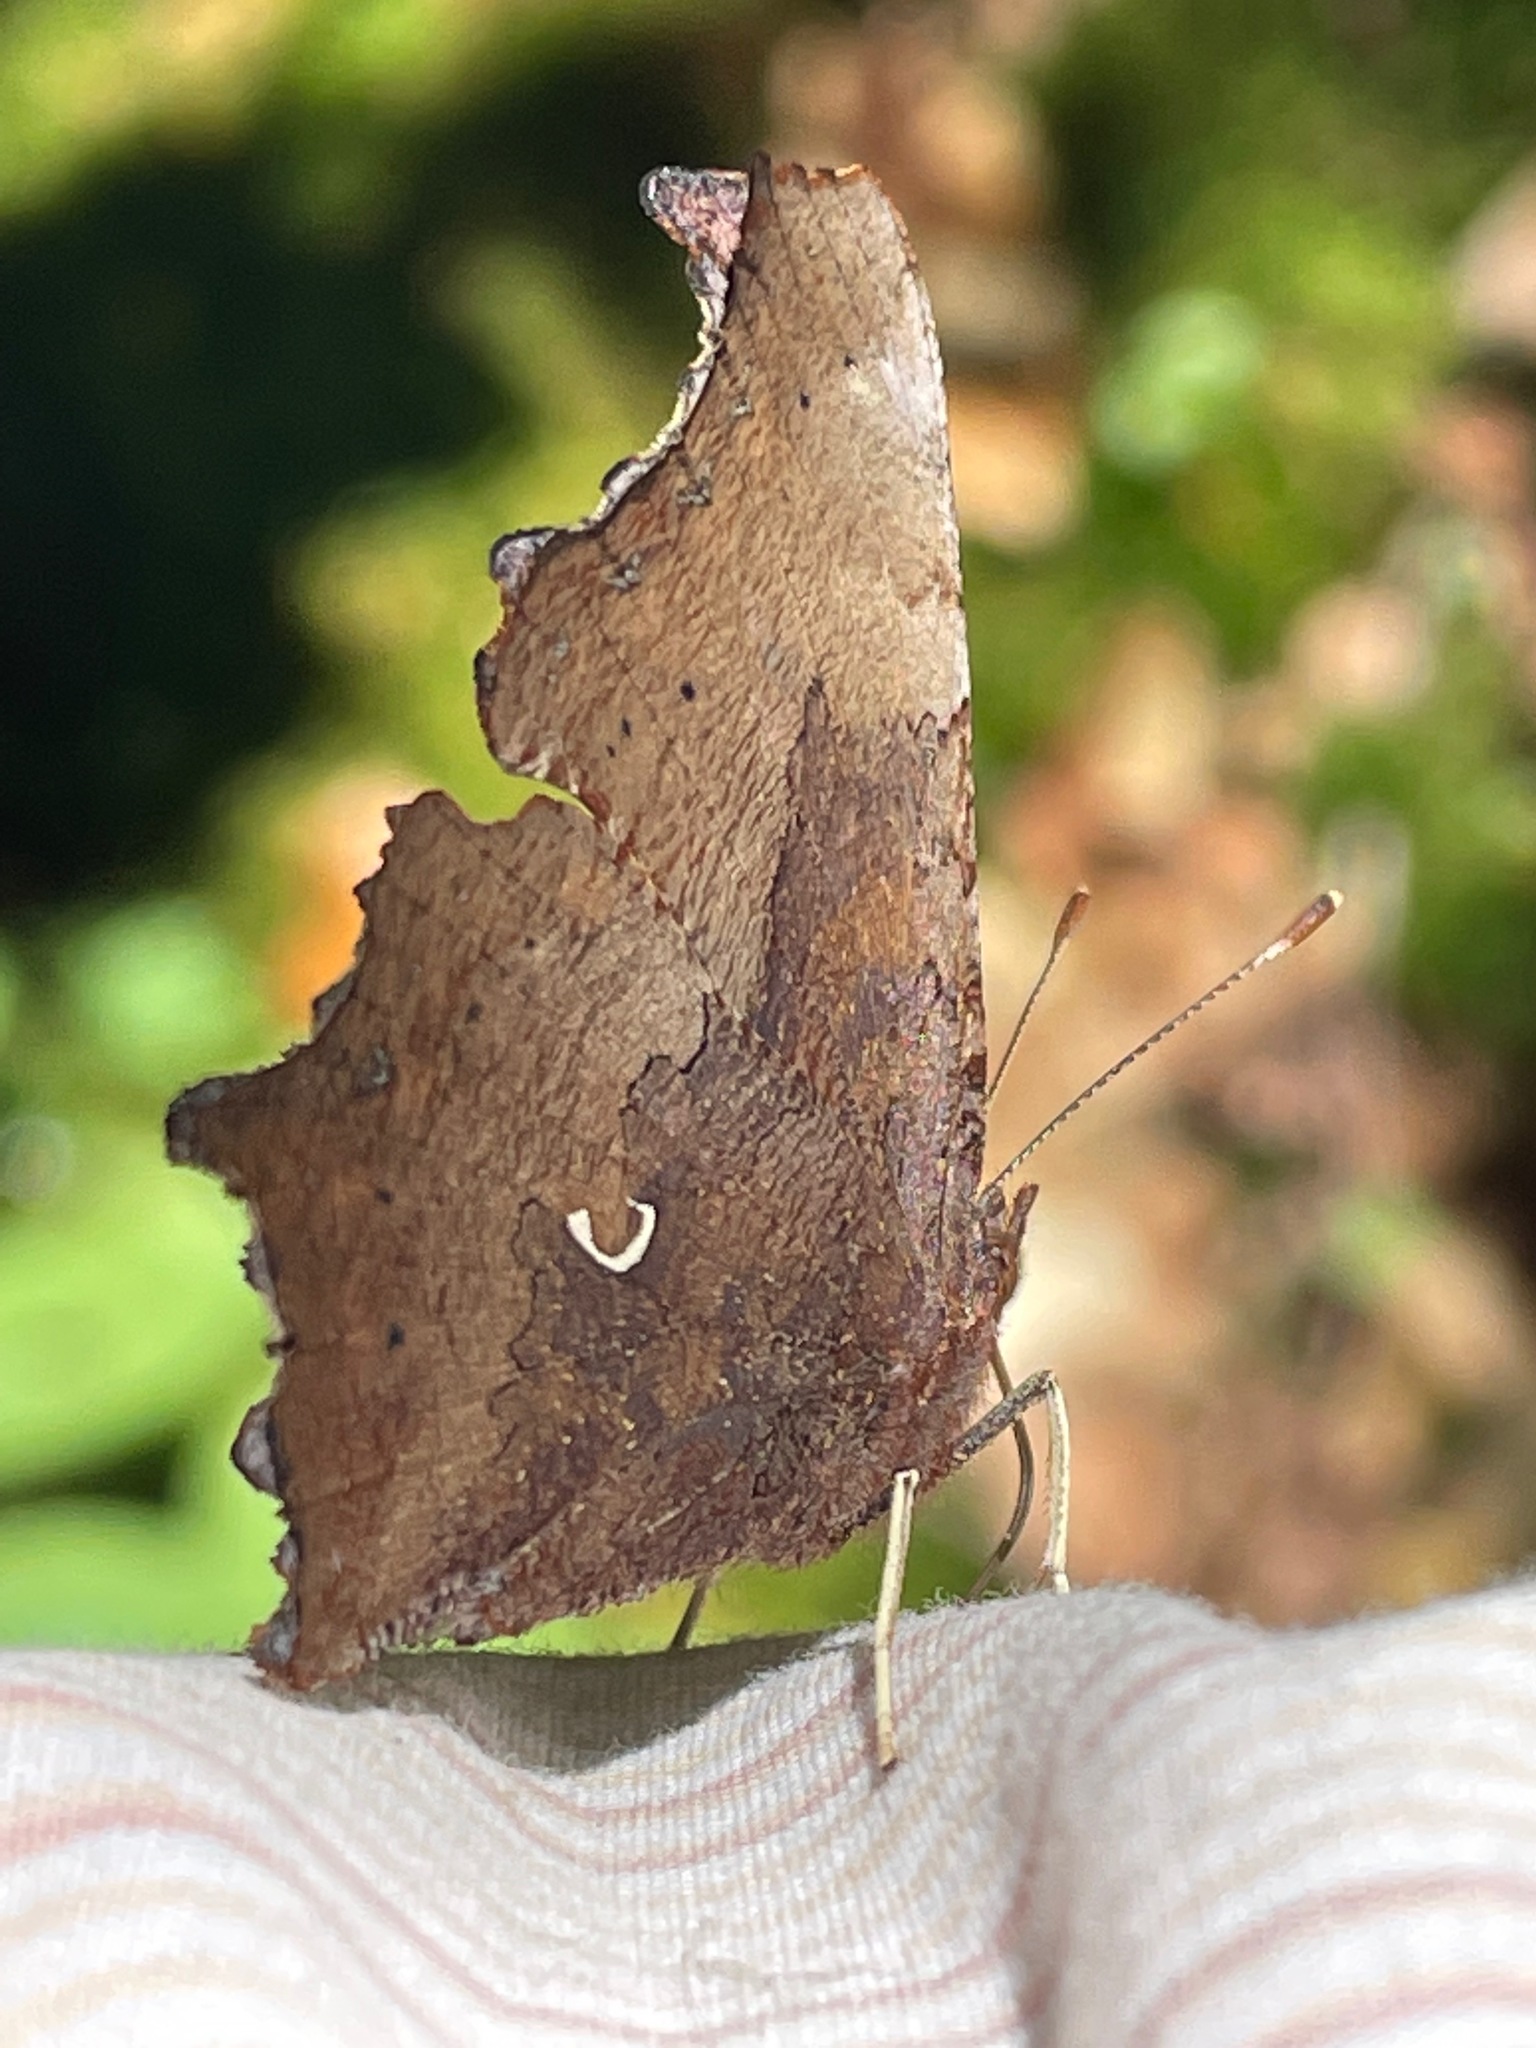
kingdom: Animalia
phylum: Arthropoda
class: Insecta
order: Lepidoptera
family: Nymphalidae
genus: Polygonia
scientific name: Polygonia comma
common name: Eastern comma
